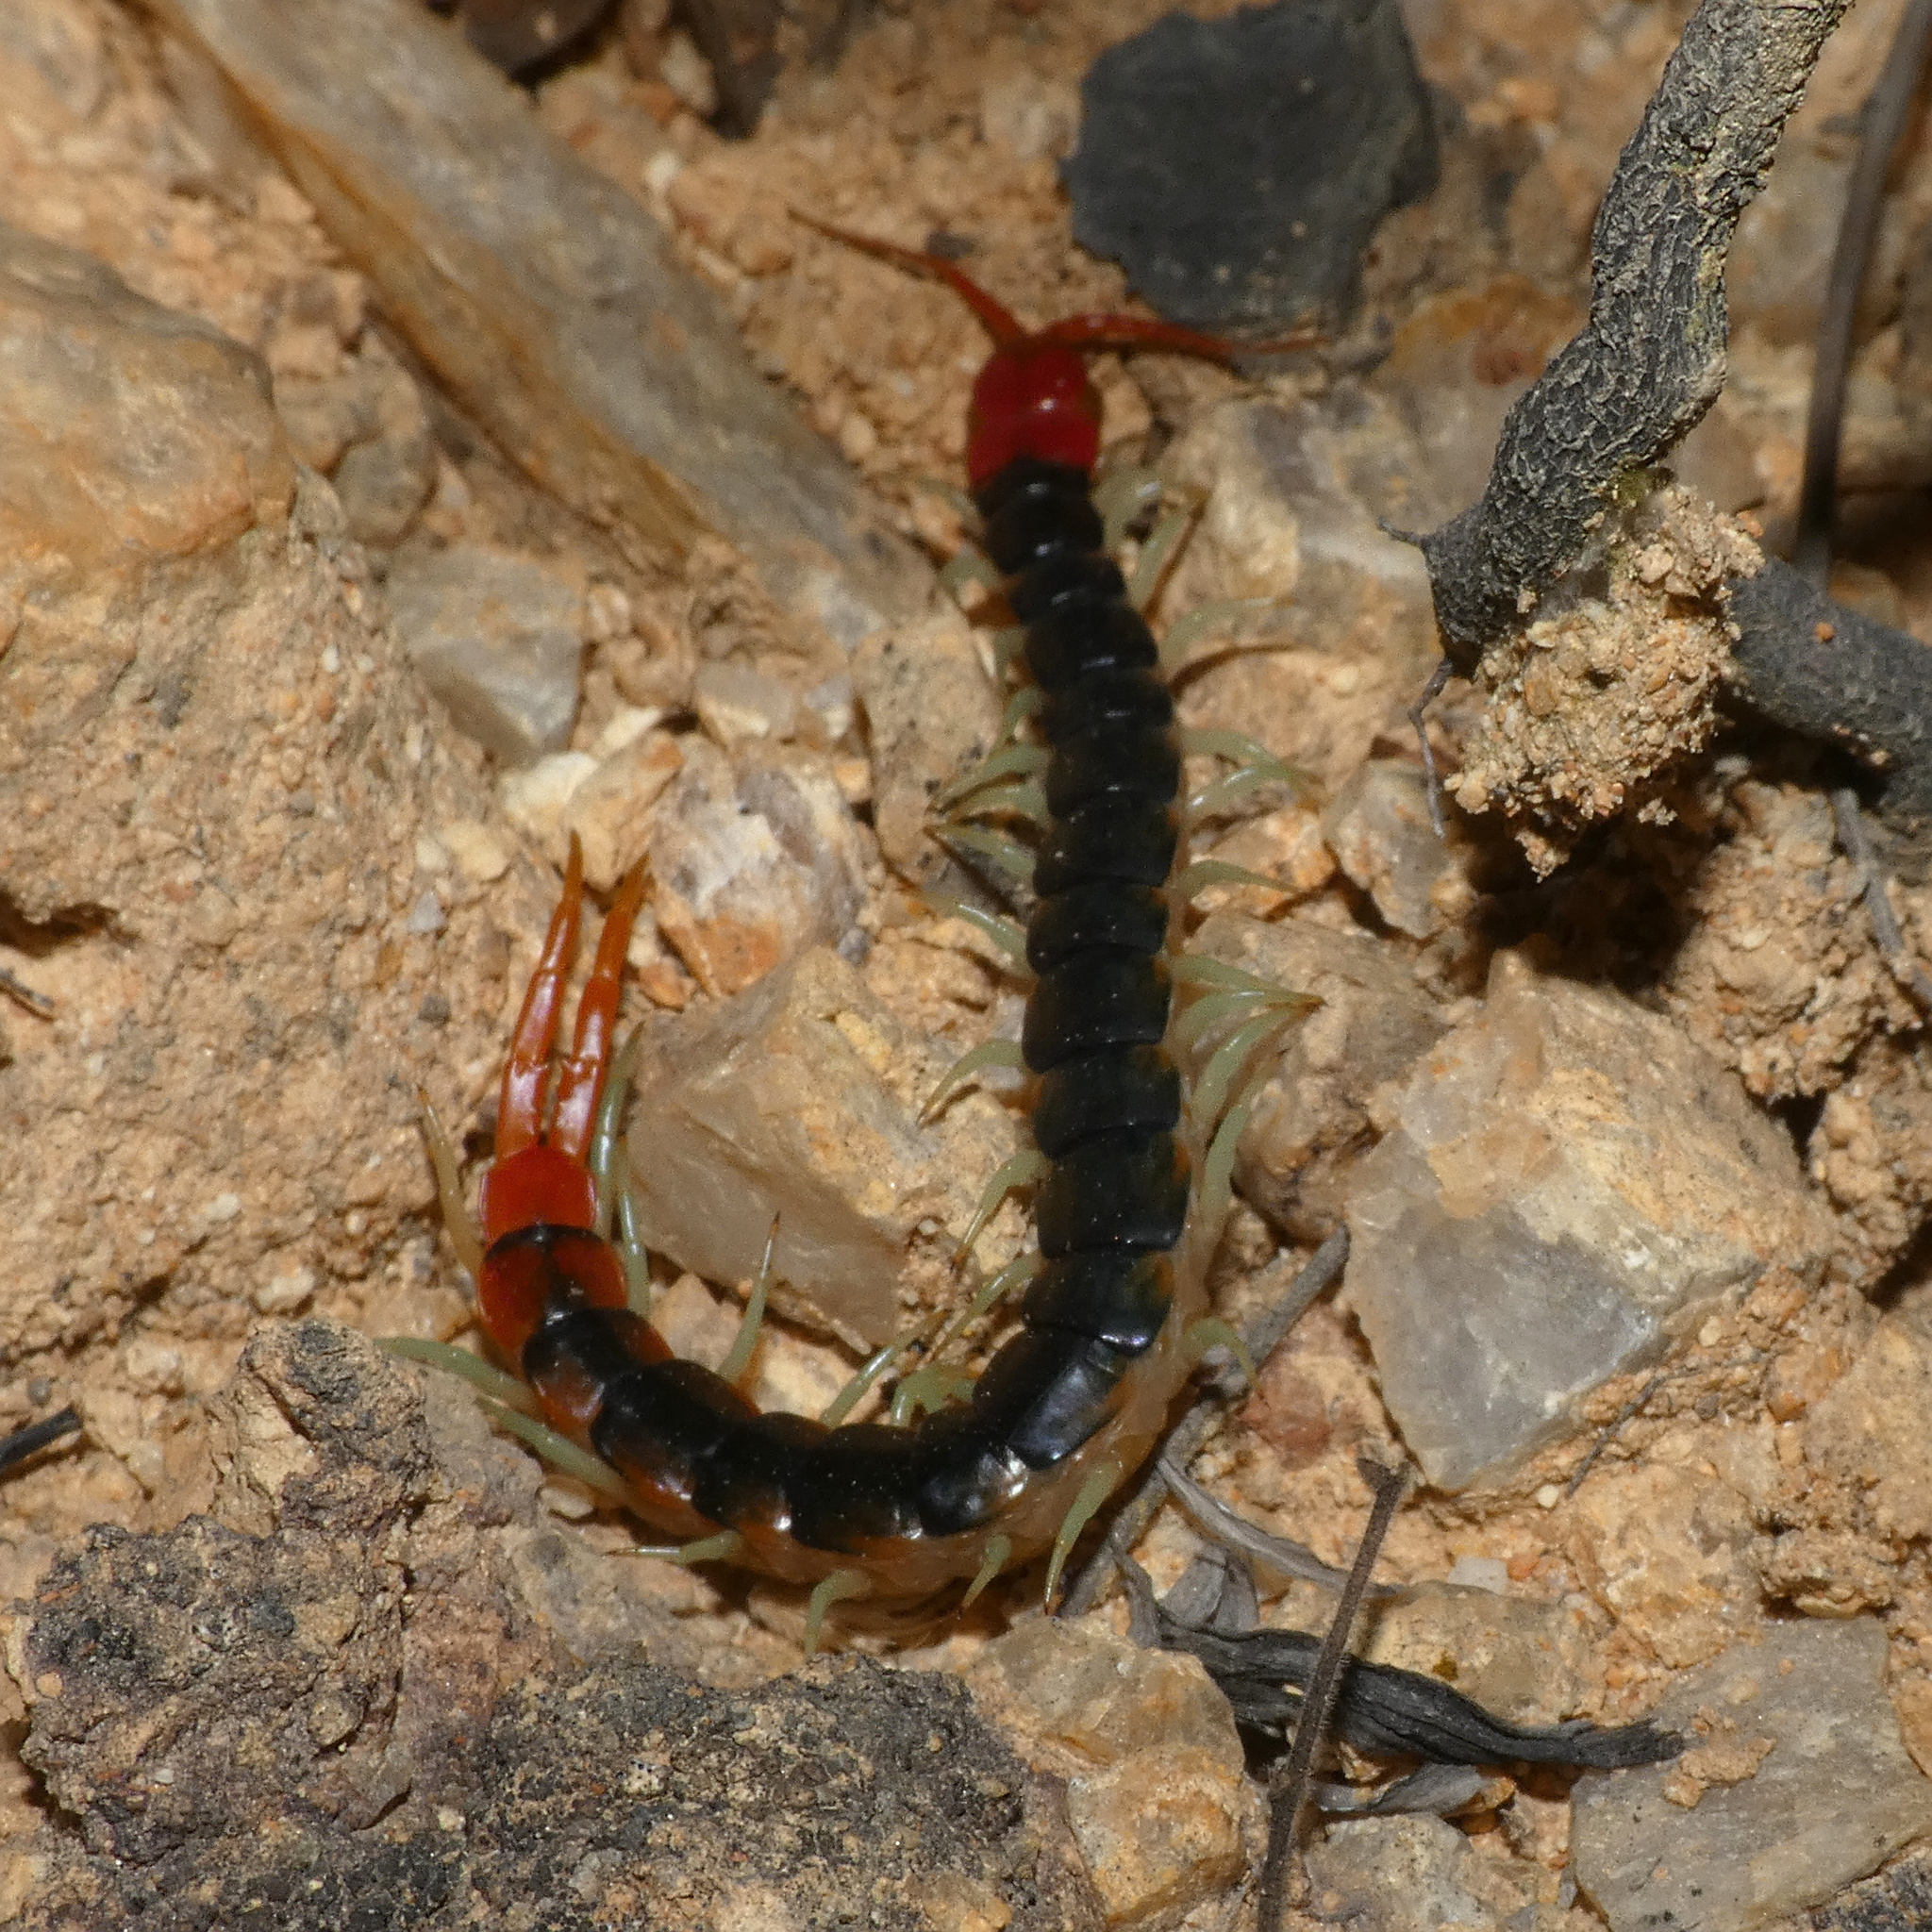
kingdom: Animalia
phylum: Arthropoda
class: Chilopoda
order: Scolopendromorpha
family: Scolopendridae
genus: Scolopendra
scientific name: Scolopendra morsitans
